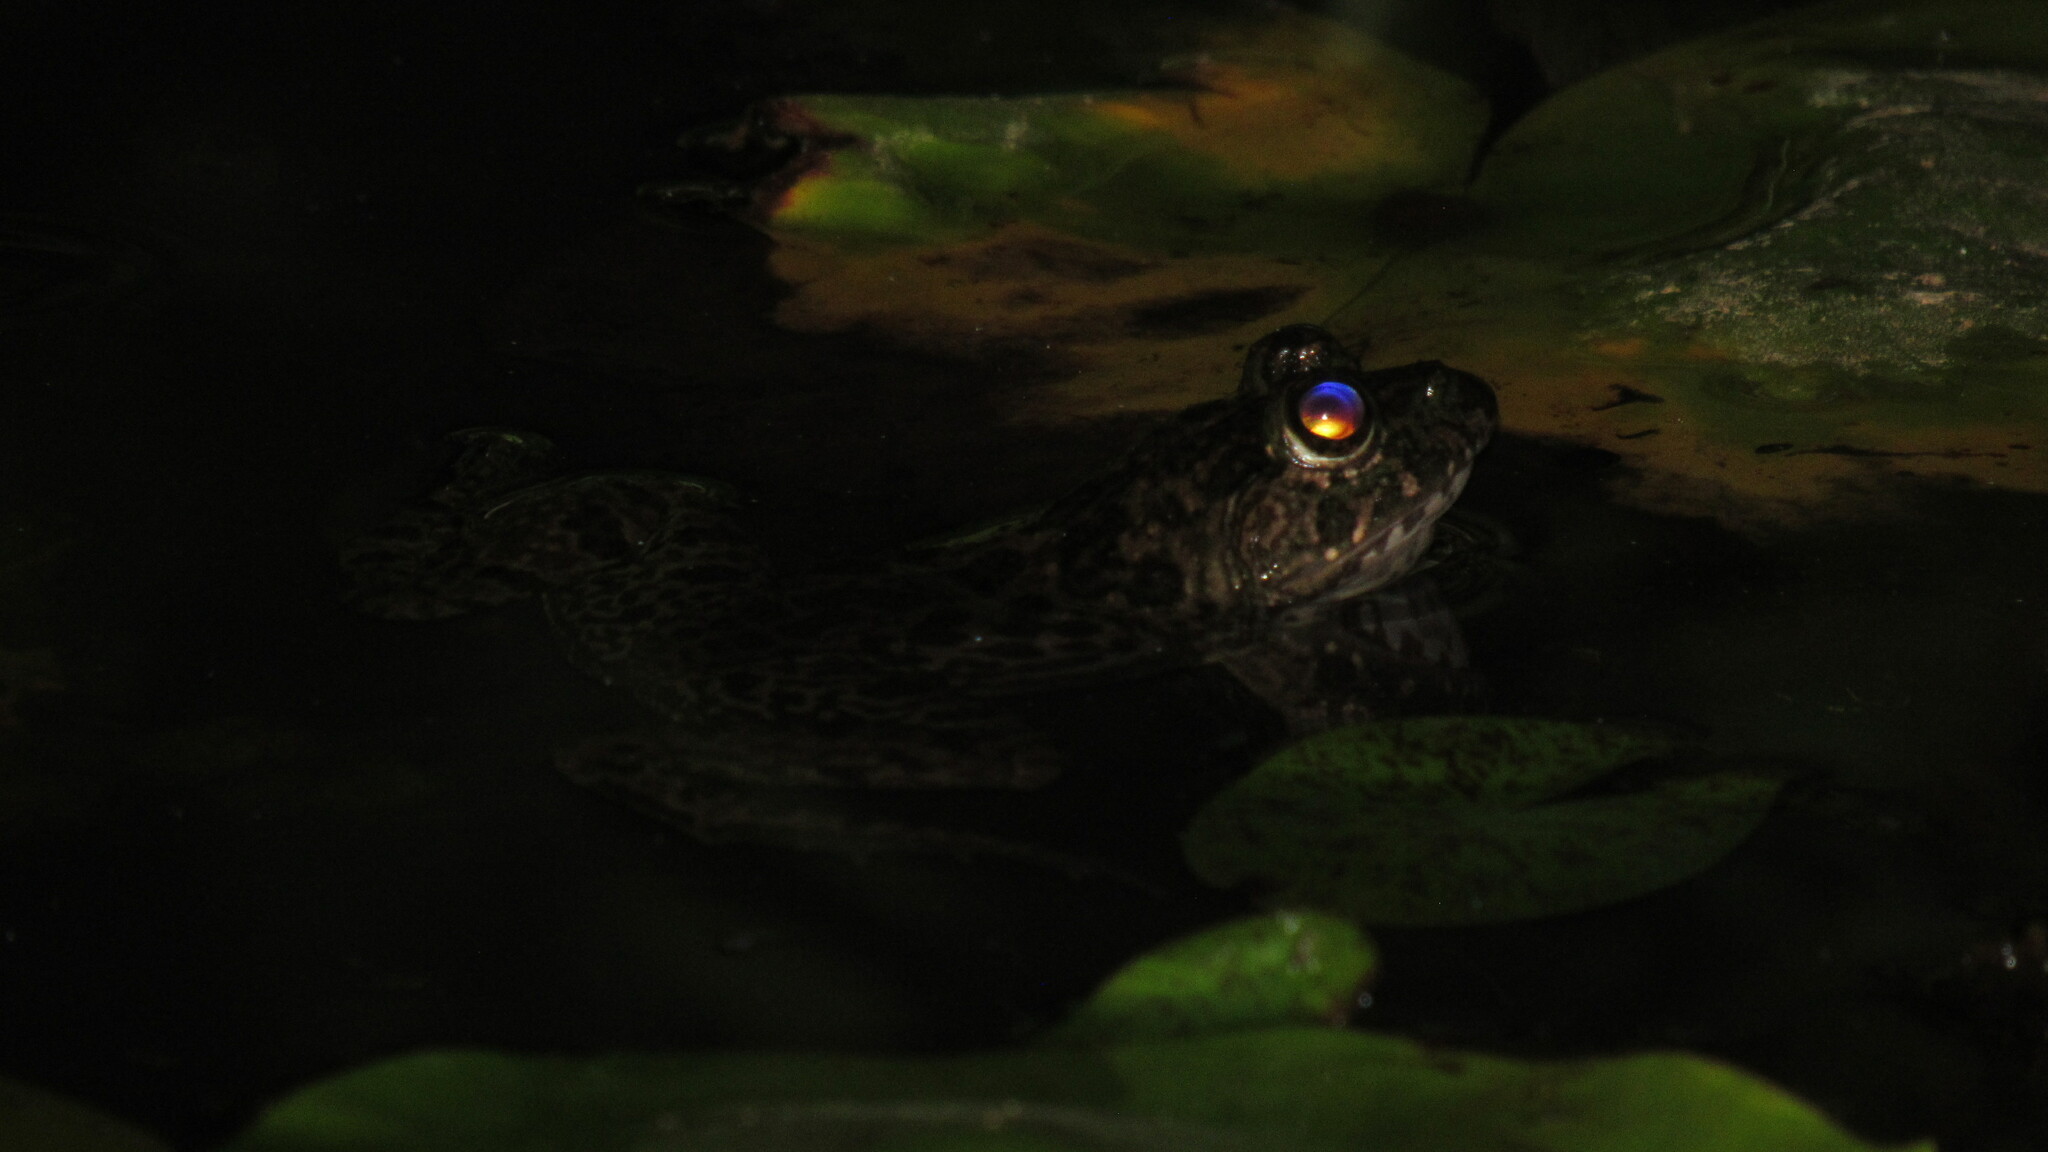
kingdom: Animalia
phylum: Chordata
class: Amphibia
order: Anura
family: Dicroglossidae
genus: Euphlyctis
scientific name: Euphlyctis cyanophlyctis
